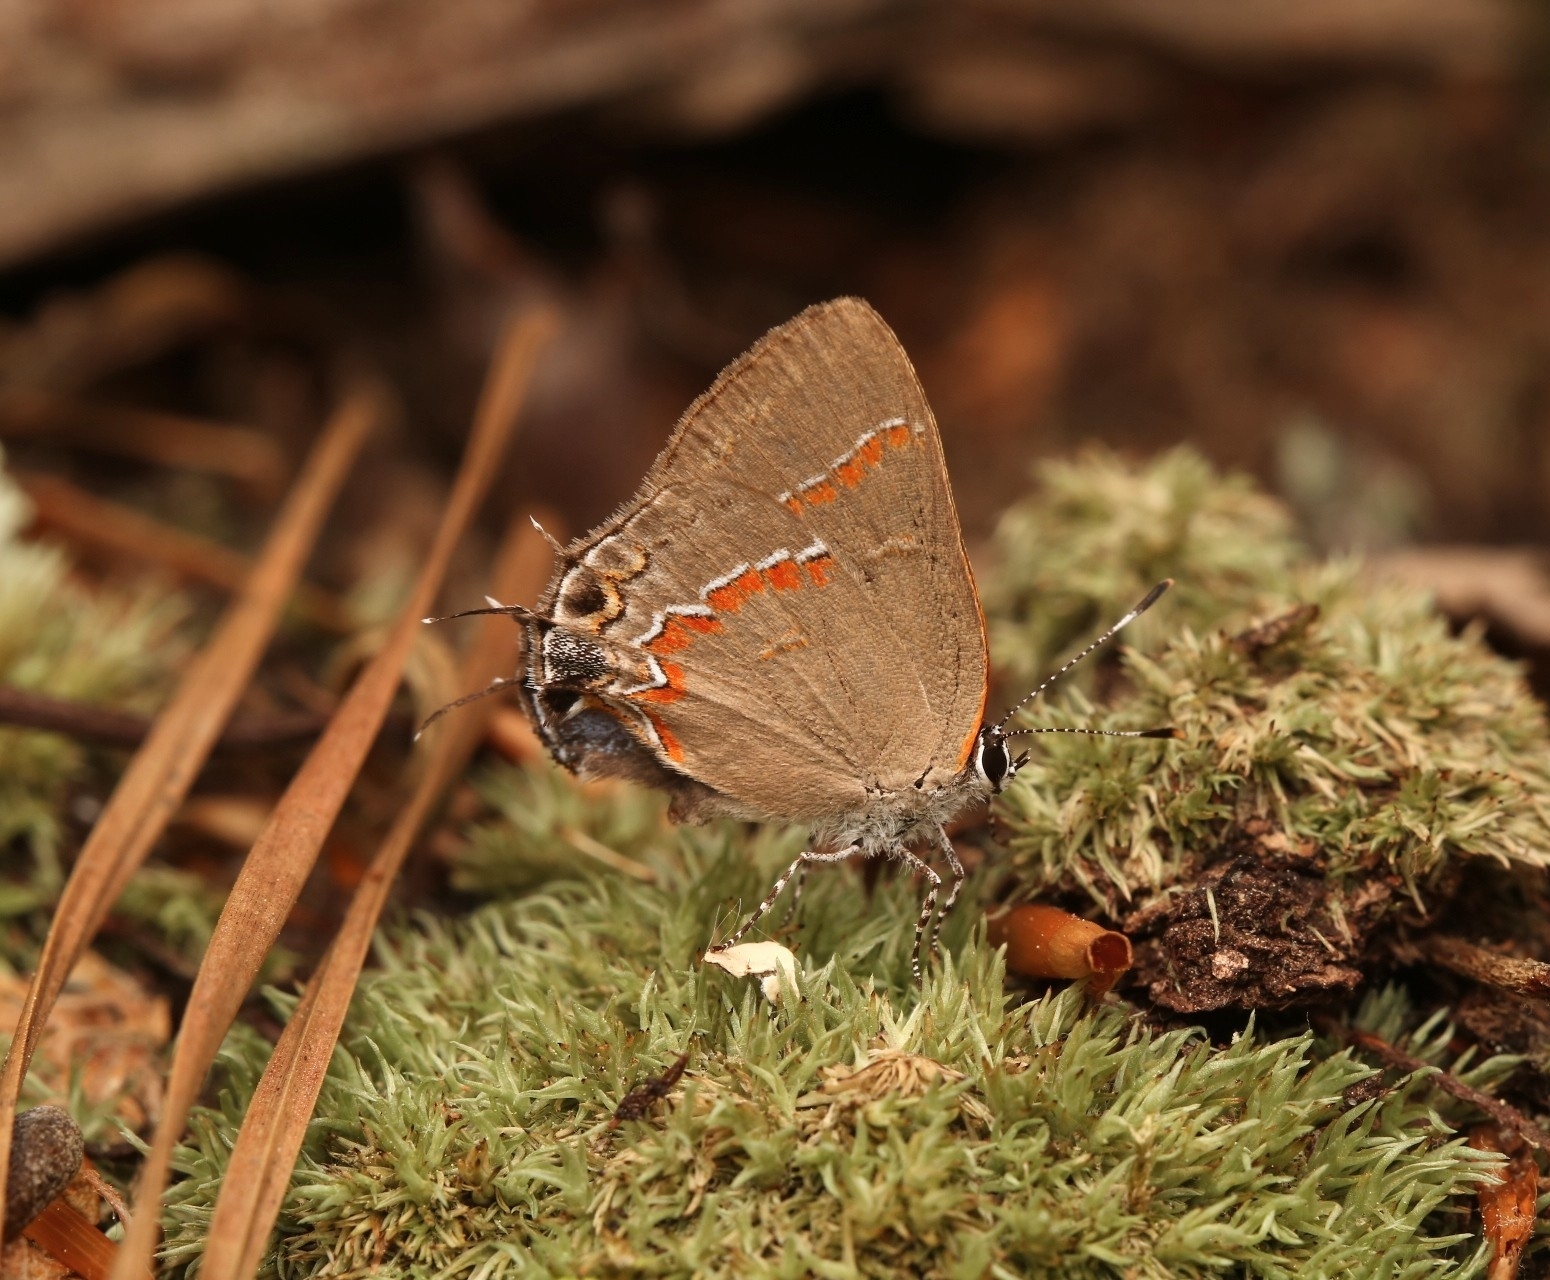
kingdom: Animalia
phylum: Arthropoda
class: Insecta
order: Lepidoptera
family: Lycaenidae
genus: Calycopis
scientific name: Calycopis cecrops
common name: Red-banded hairstreak
